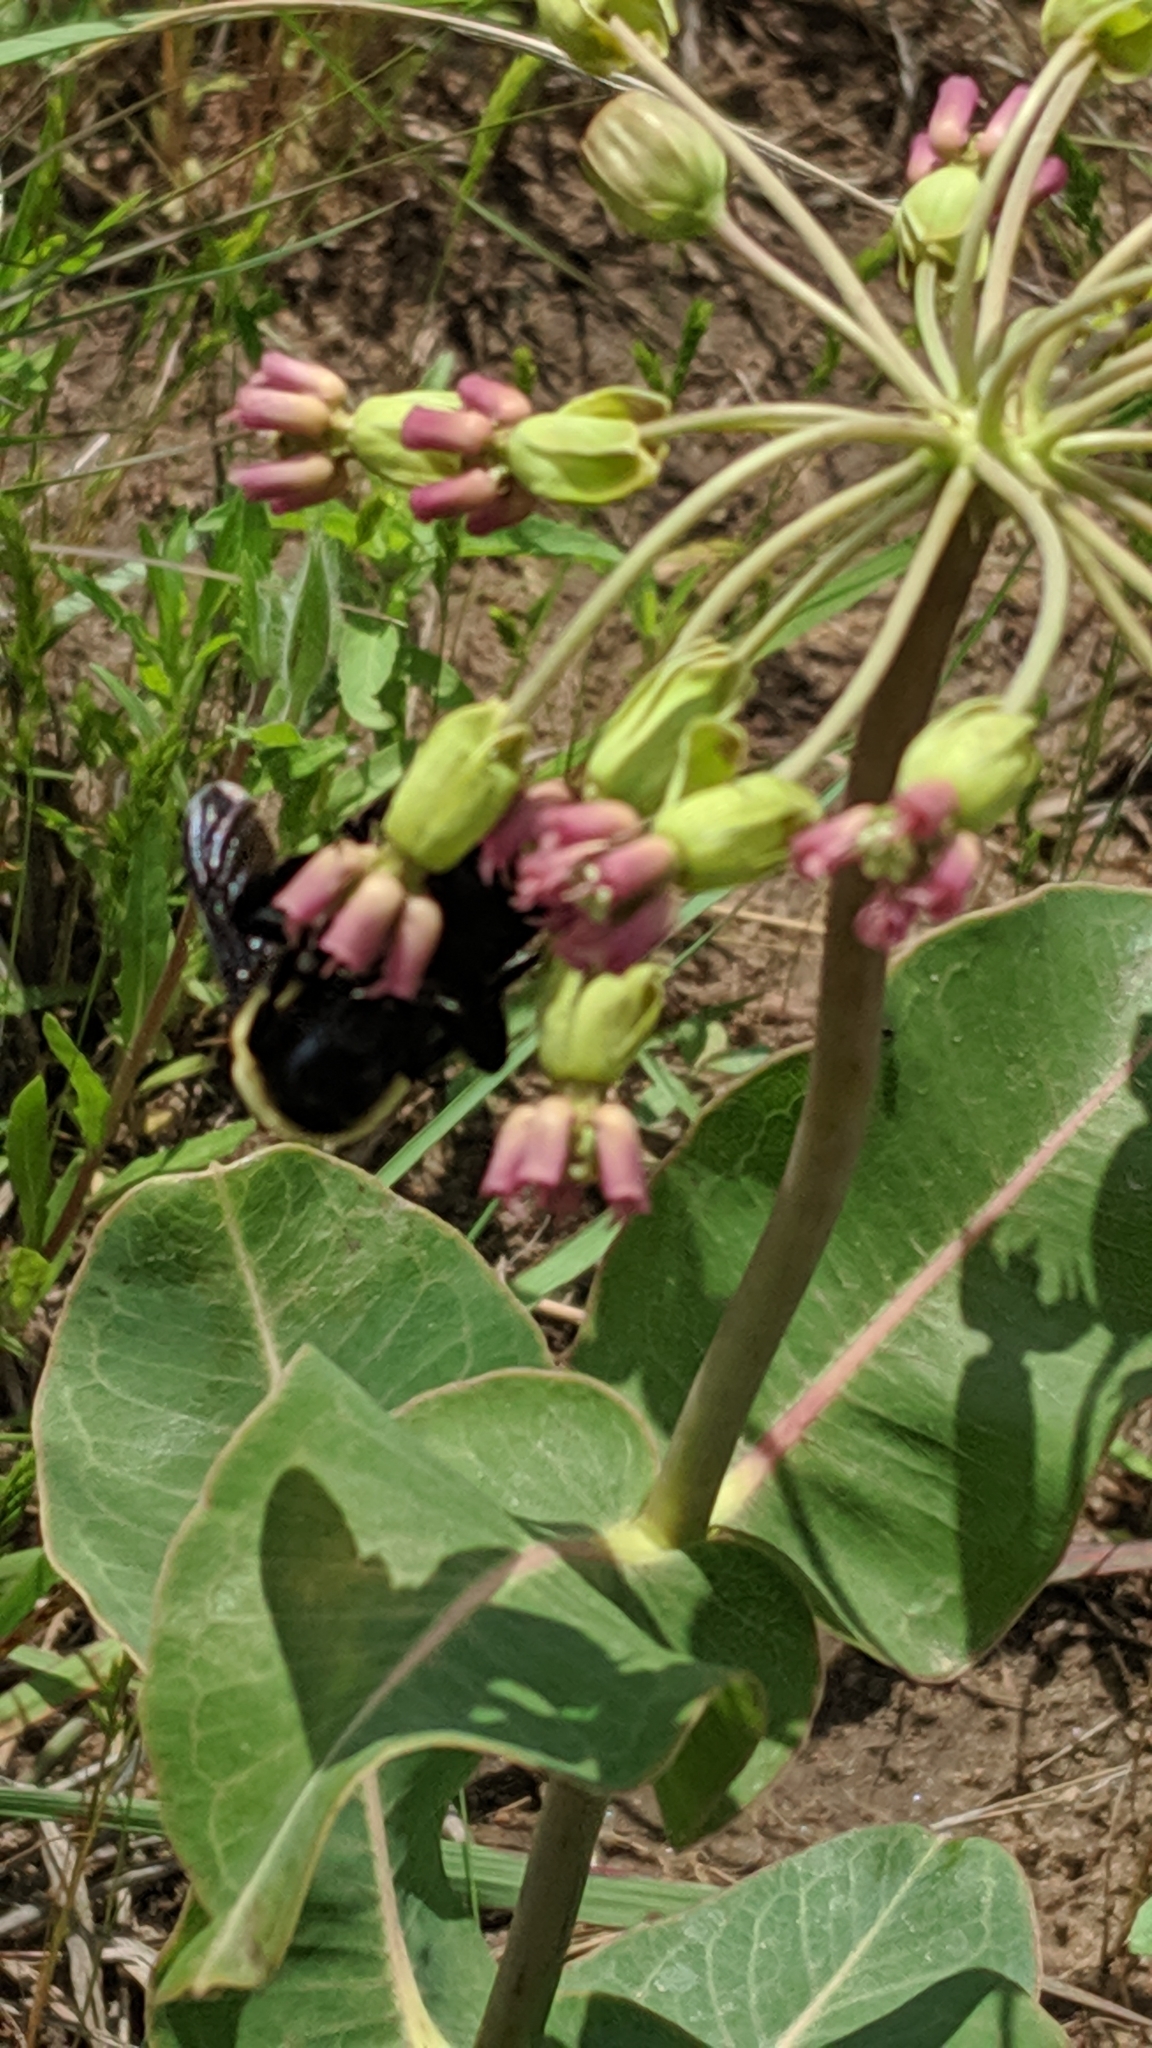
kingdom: Plantae
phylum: Tracheophyta
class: Magnoliopsida
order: Gentianales
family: Apocynaceae
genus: Asclepias
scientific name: Asclepias amplexicaulis
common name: Blunt-leaf milkweed
